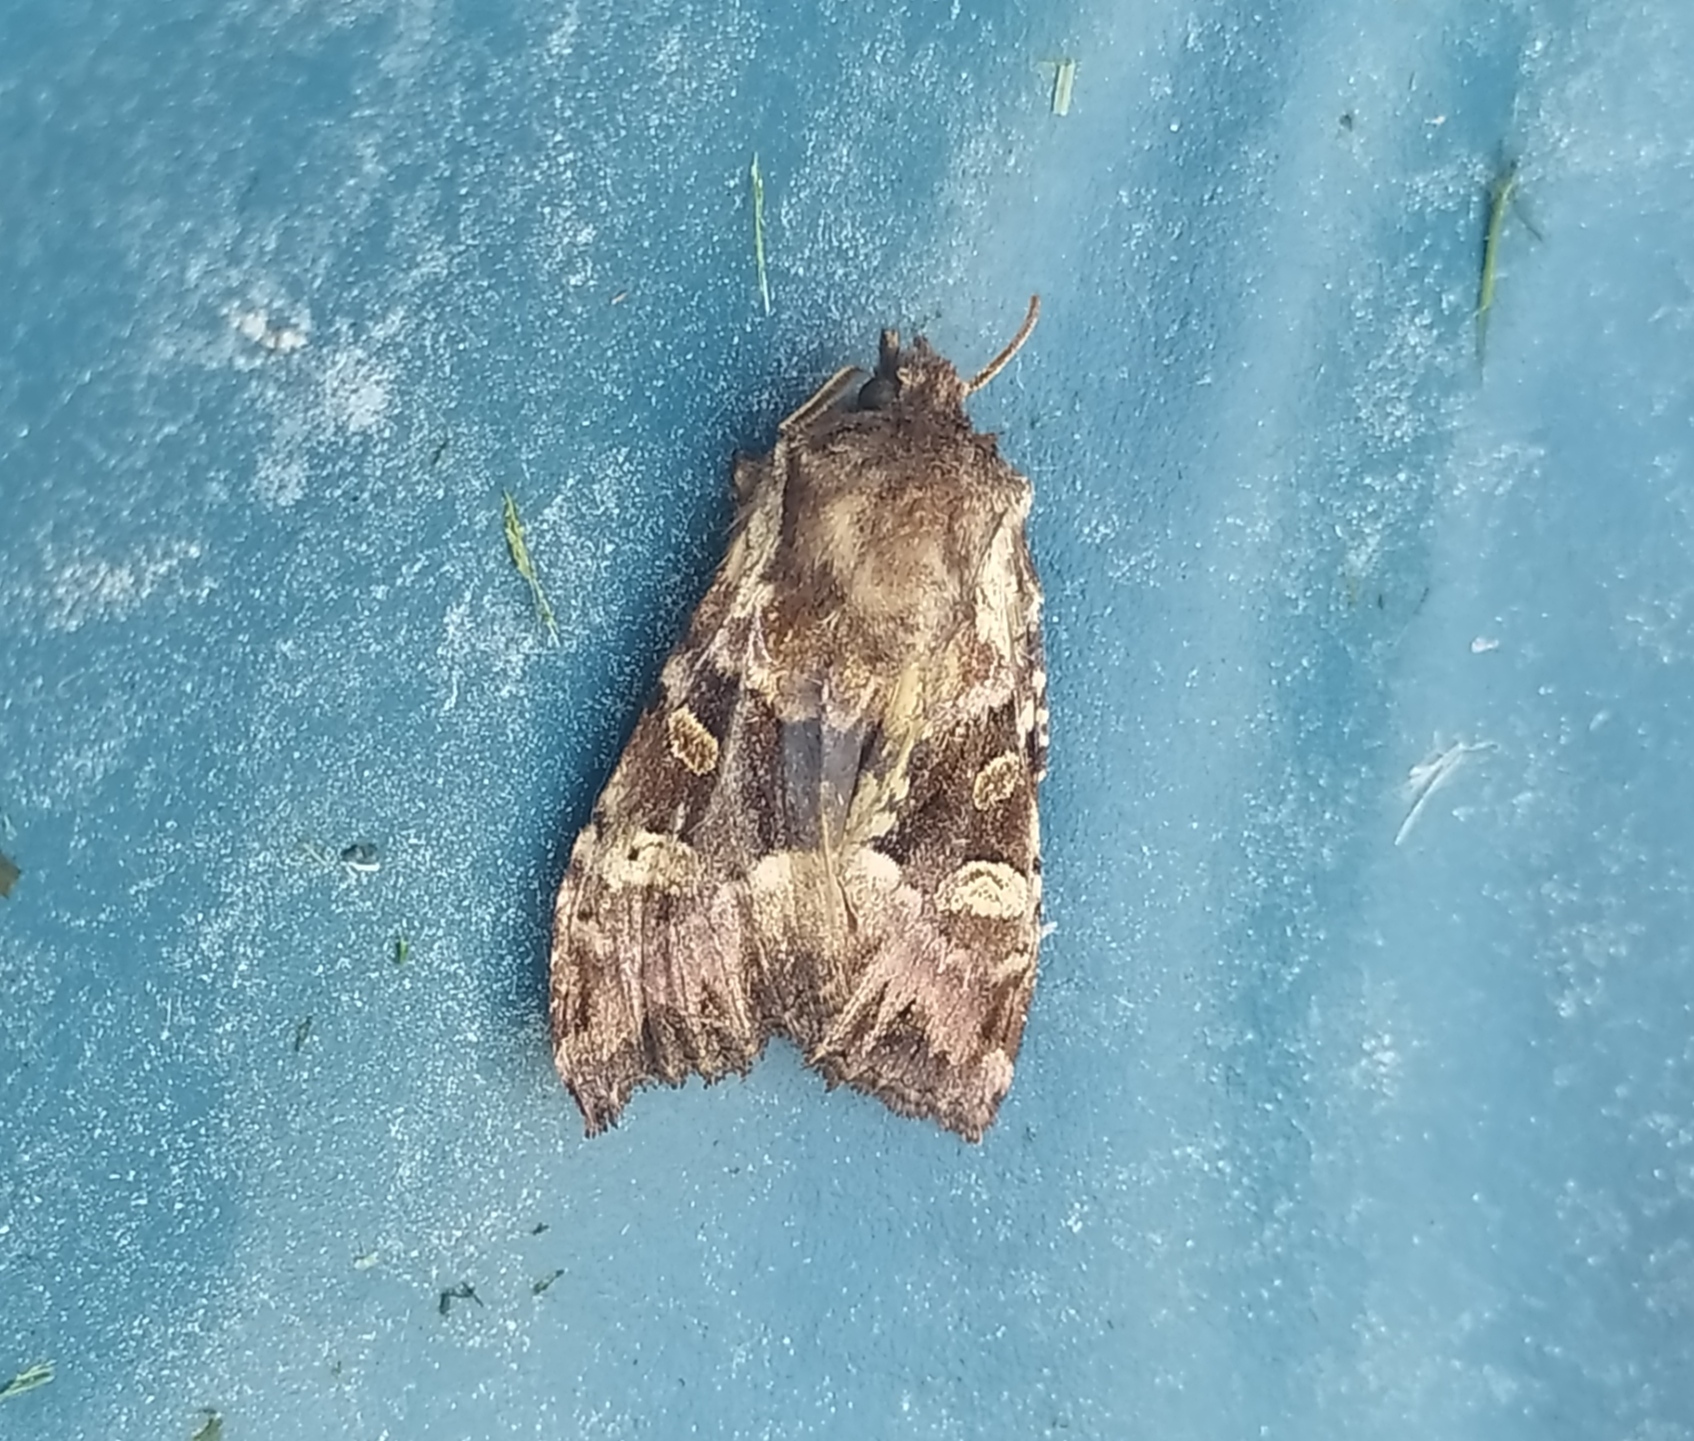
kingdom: Animalia
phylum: Arthropoda
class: Insecta
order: Lepidoptera
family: Noctuidae
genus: Blepharita
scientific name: Blepharita amica
